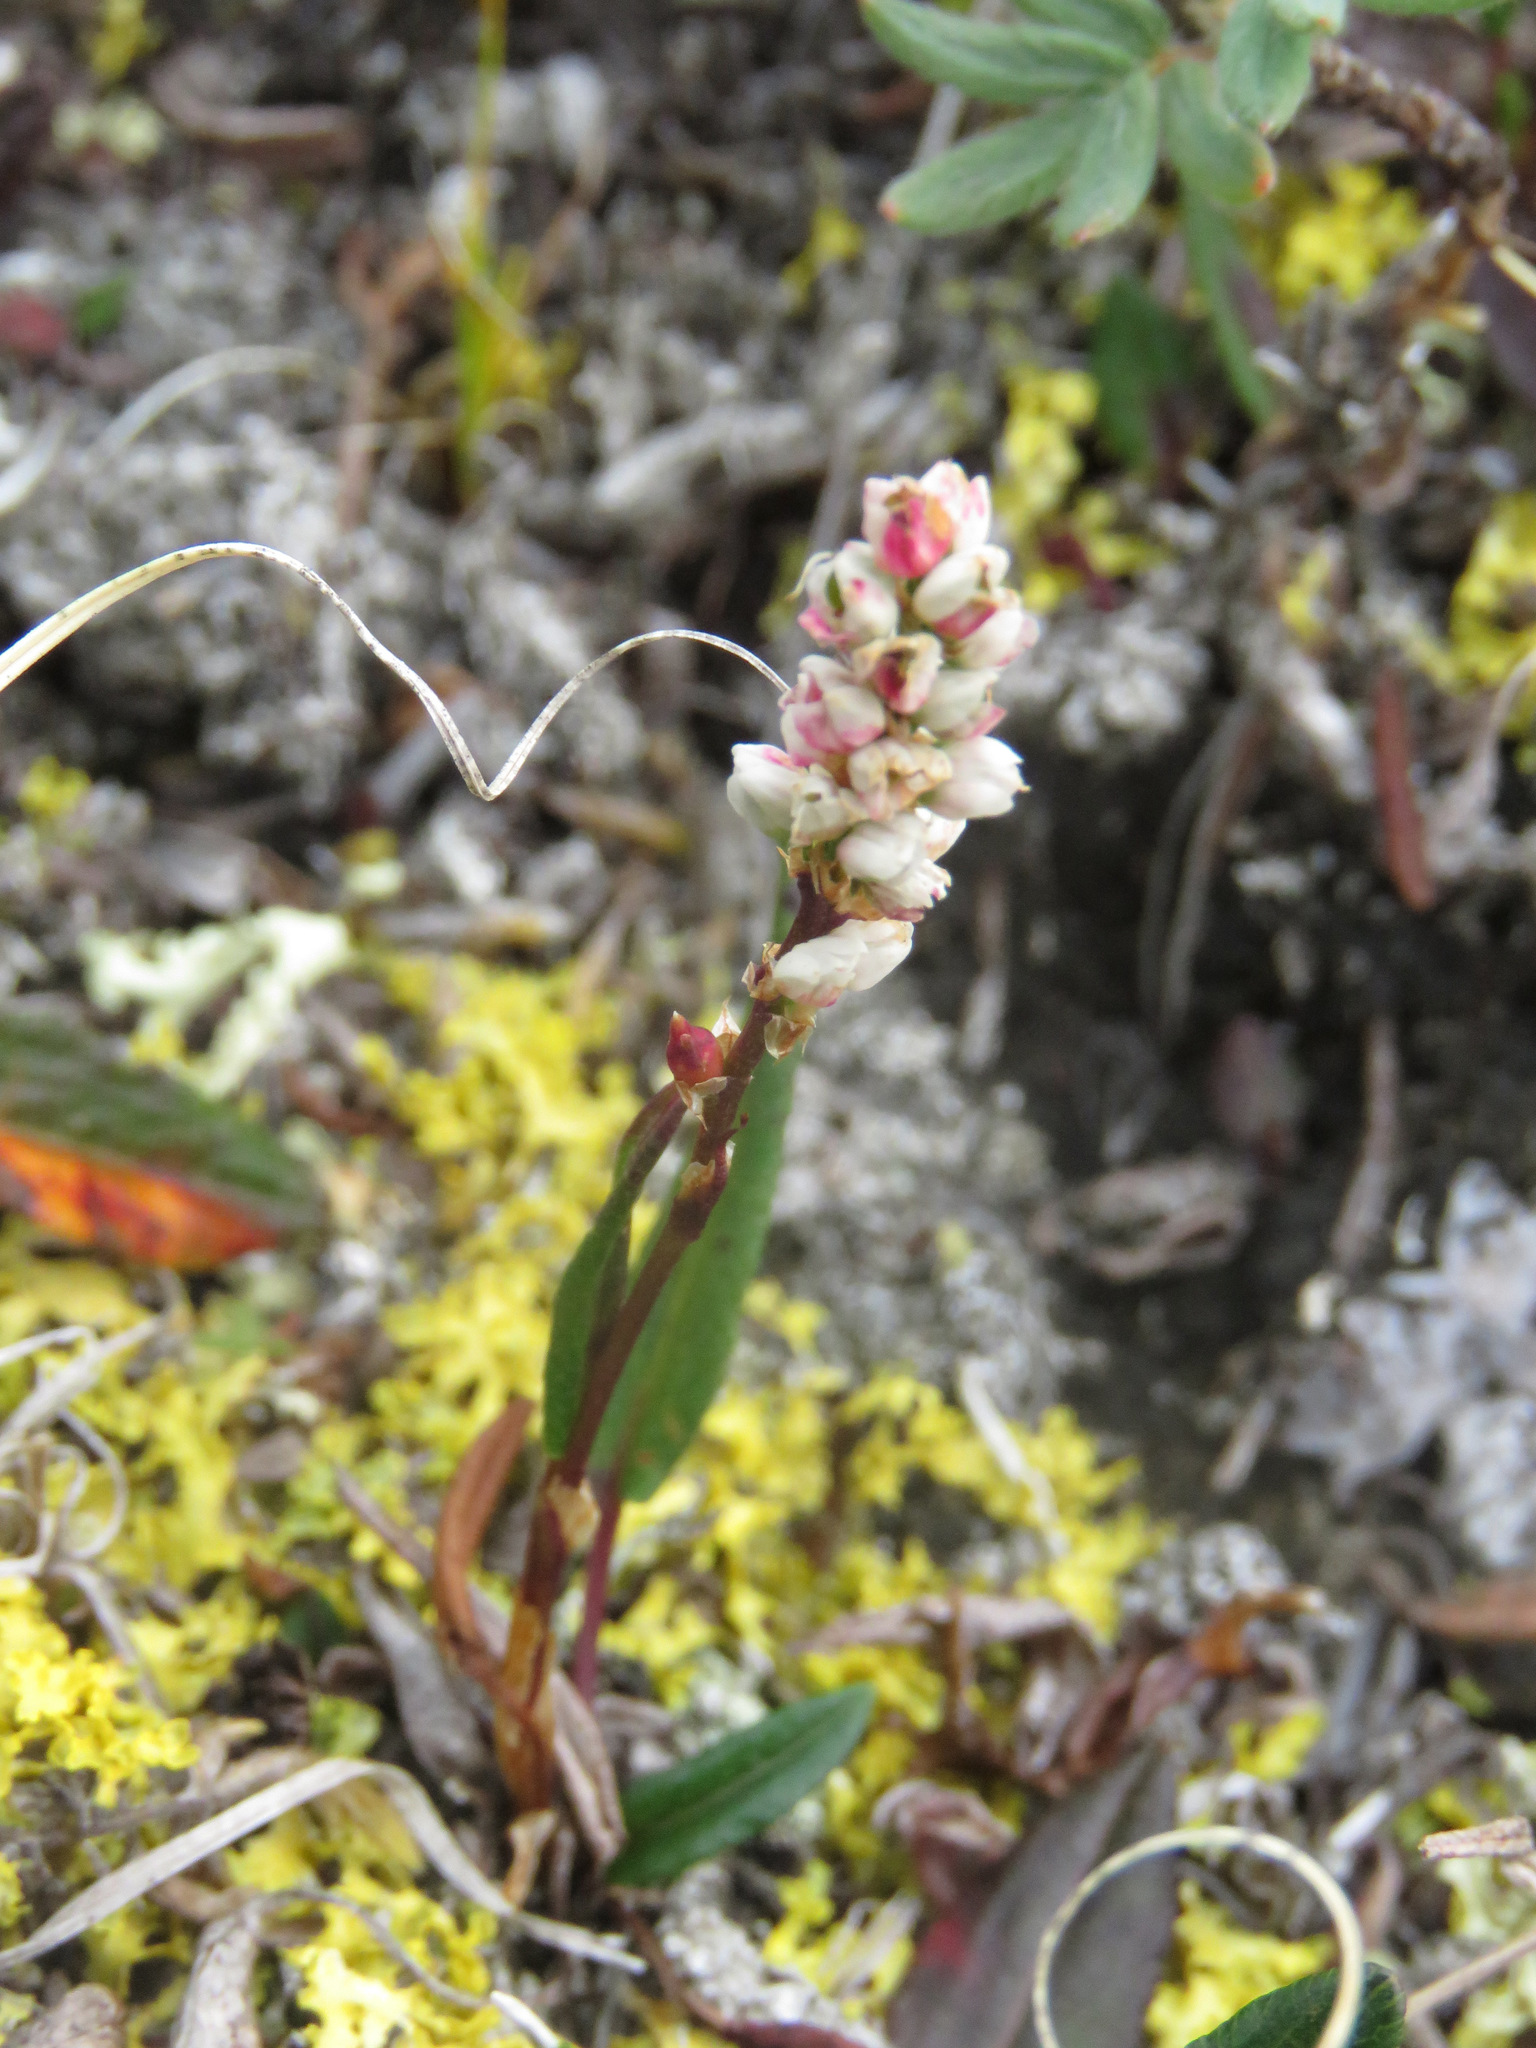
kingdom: Plantae
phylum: Tracheophyta
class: Magnoliopsida
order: Caryophyllales
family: Polygonaceae
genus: Bistorta
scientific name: Bistorta vivipara
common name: Alpine bistort
